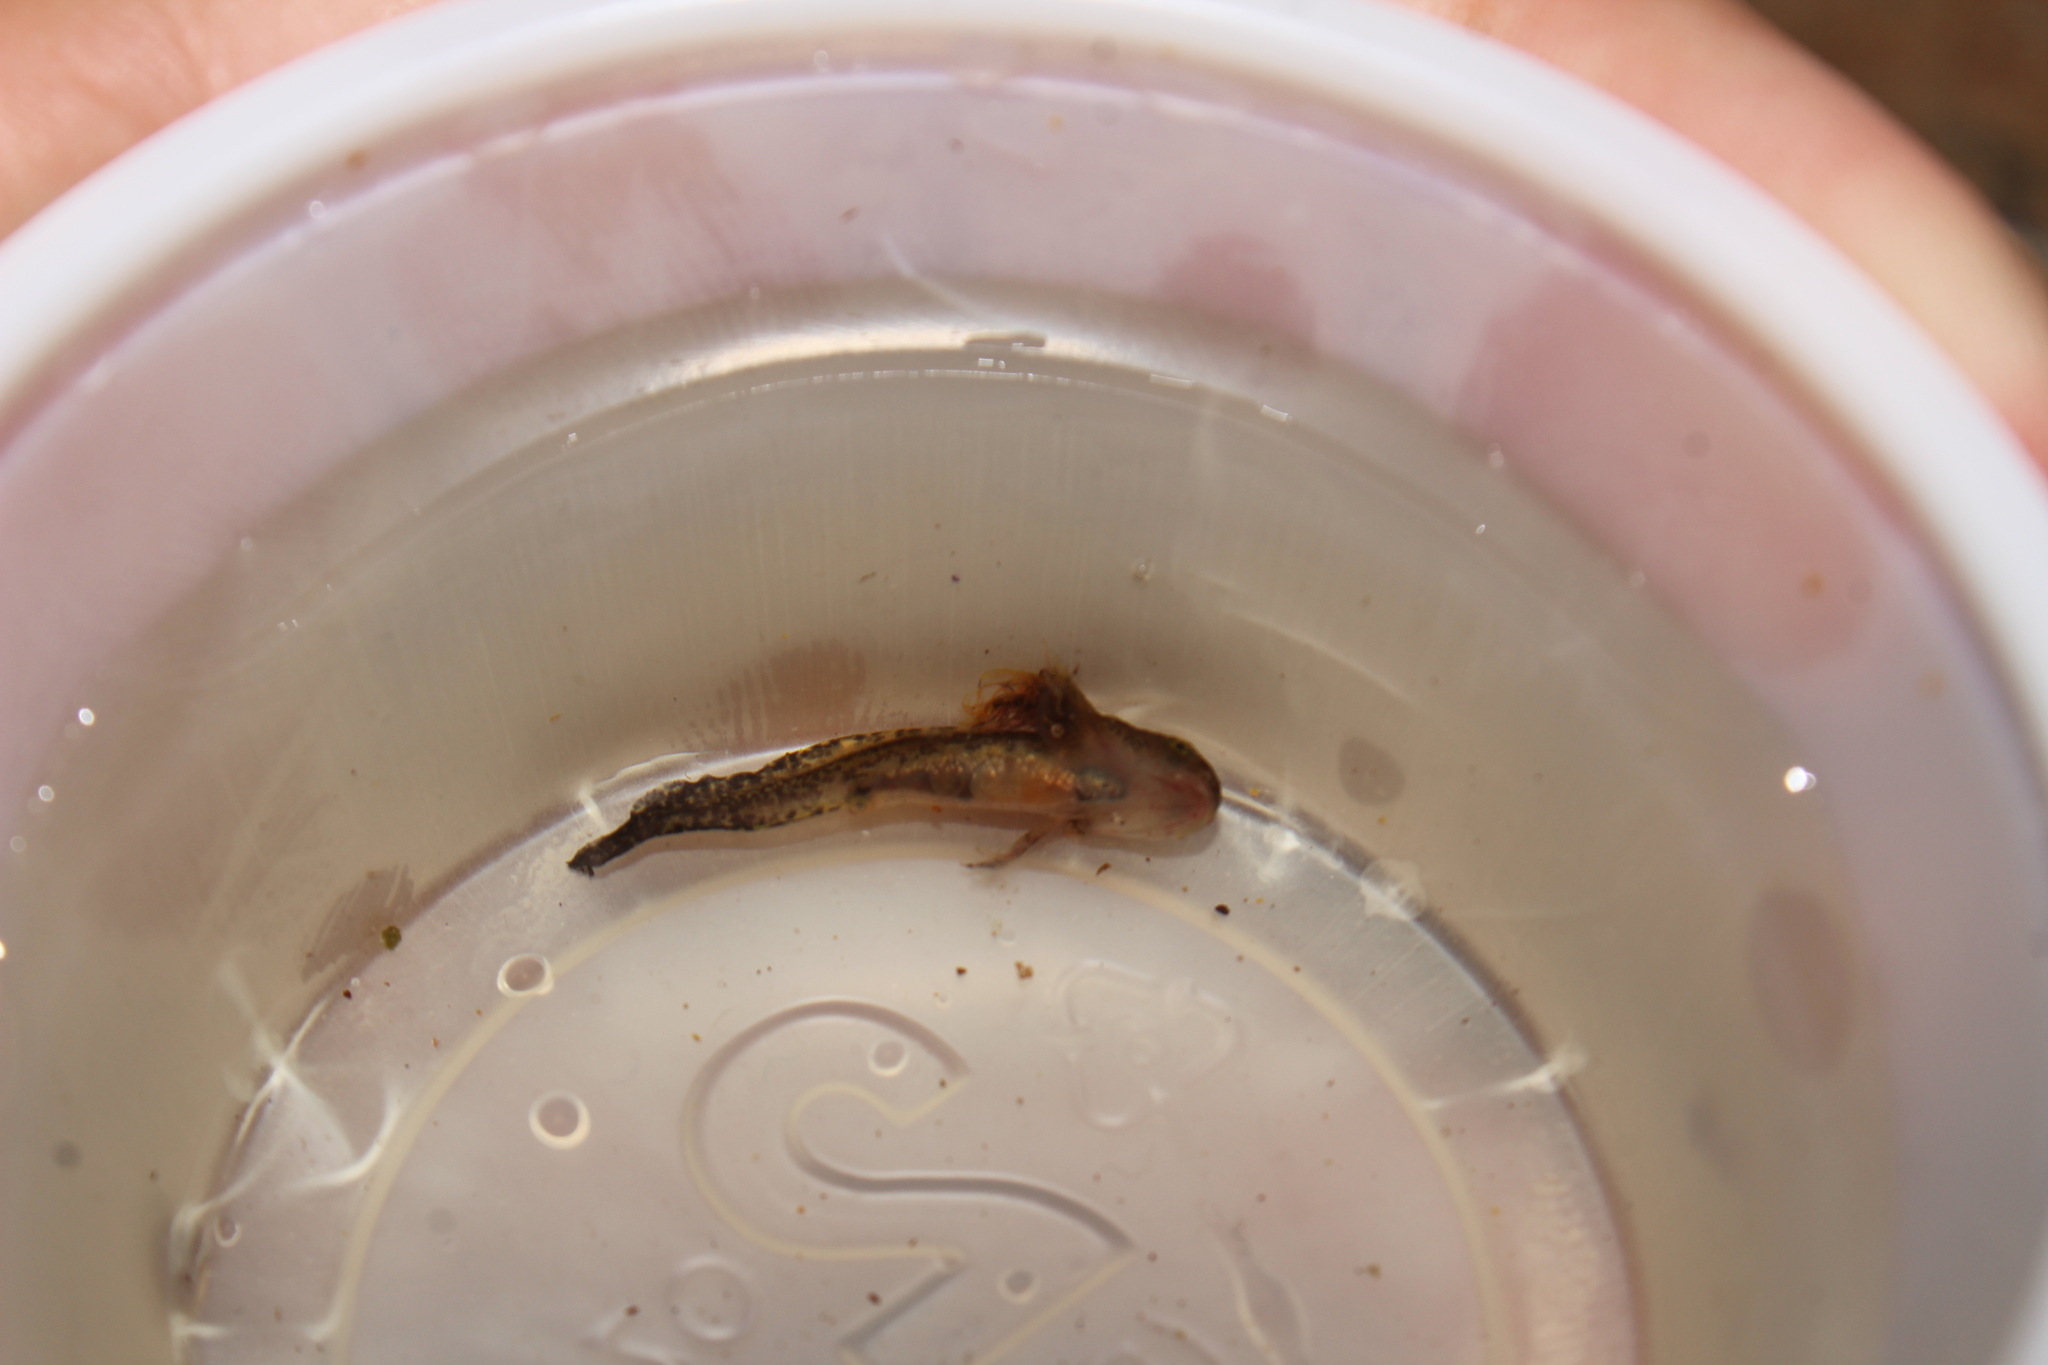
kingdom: Animalia
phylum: Chordata
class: Amphibia
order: Caudata
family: Ambystomatidae
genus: Ambystoma
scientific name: Ambystoma maculatum
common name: Spotted salamander
